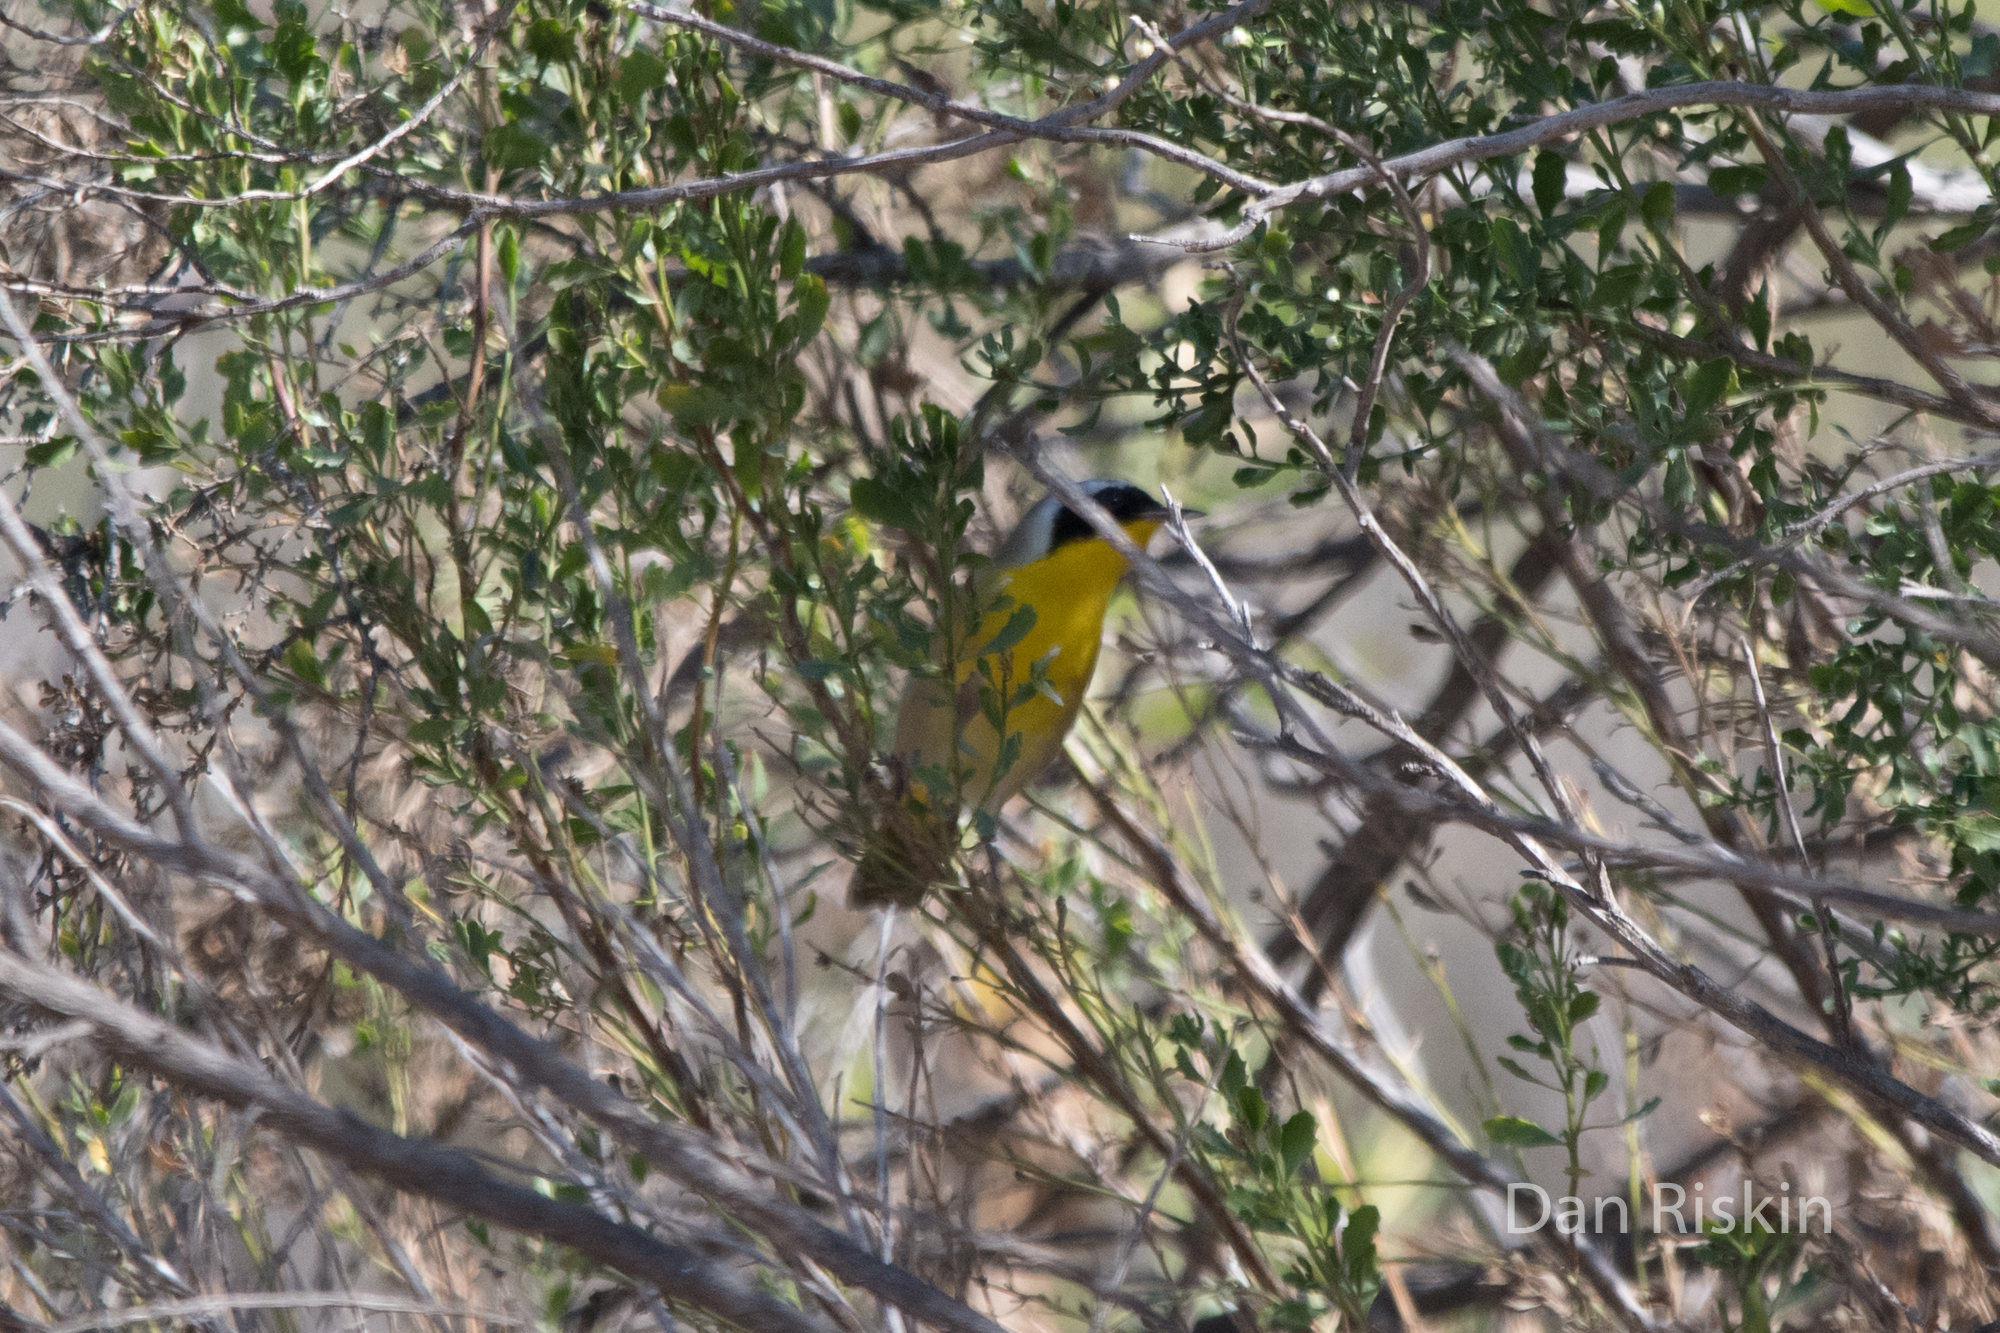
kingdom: Animalia
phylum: Chordata
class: Aves
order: Passeriformes
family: Parulidae
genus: Geothlypis
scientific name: Geothlypis trichas
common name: Common yellowthroat
